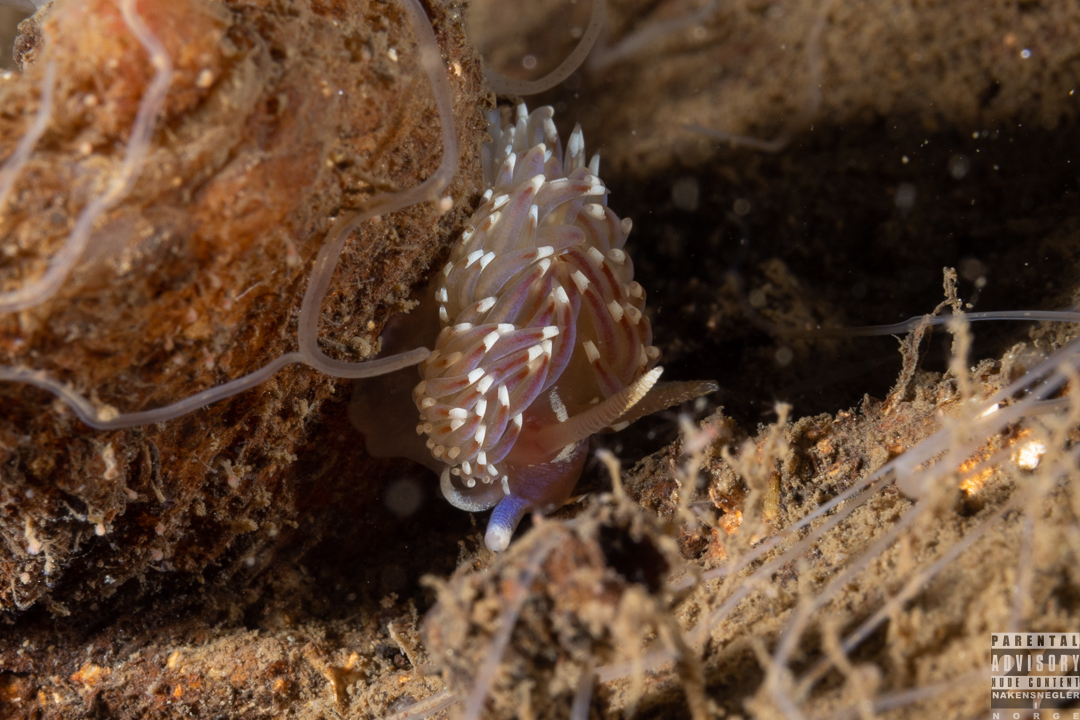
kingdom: Animalia
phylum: Mollusca
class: Gastropoda
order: Nudibranchia
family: Facelinidae
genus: Facelina
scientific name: Facelina bostoniensis
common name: Boston facelina
